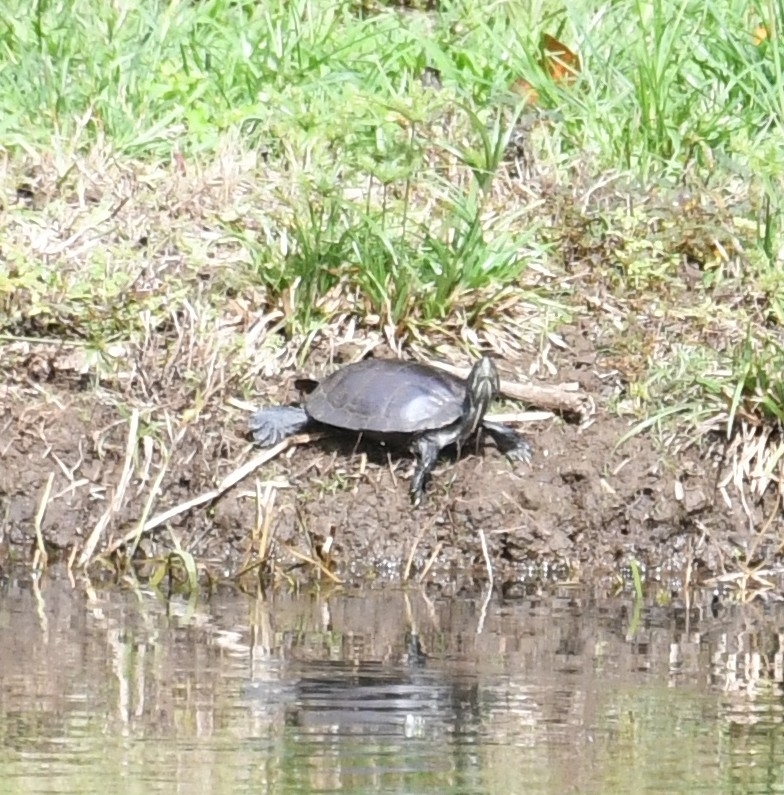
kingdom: Animalia
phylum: Chordata
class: Testudines
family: Emydidae
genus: Trachemys
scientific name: Trachemys scripta
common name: Slider
